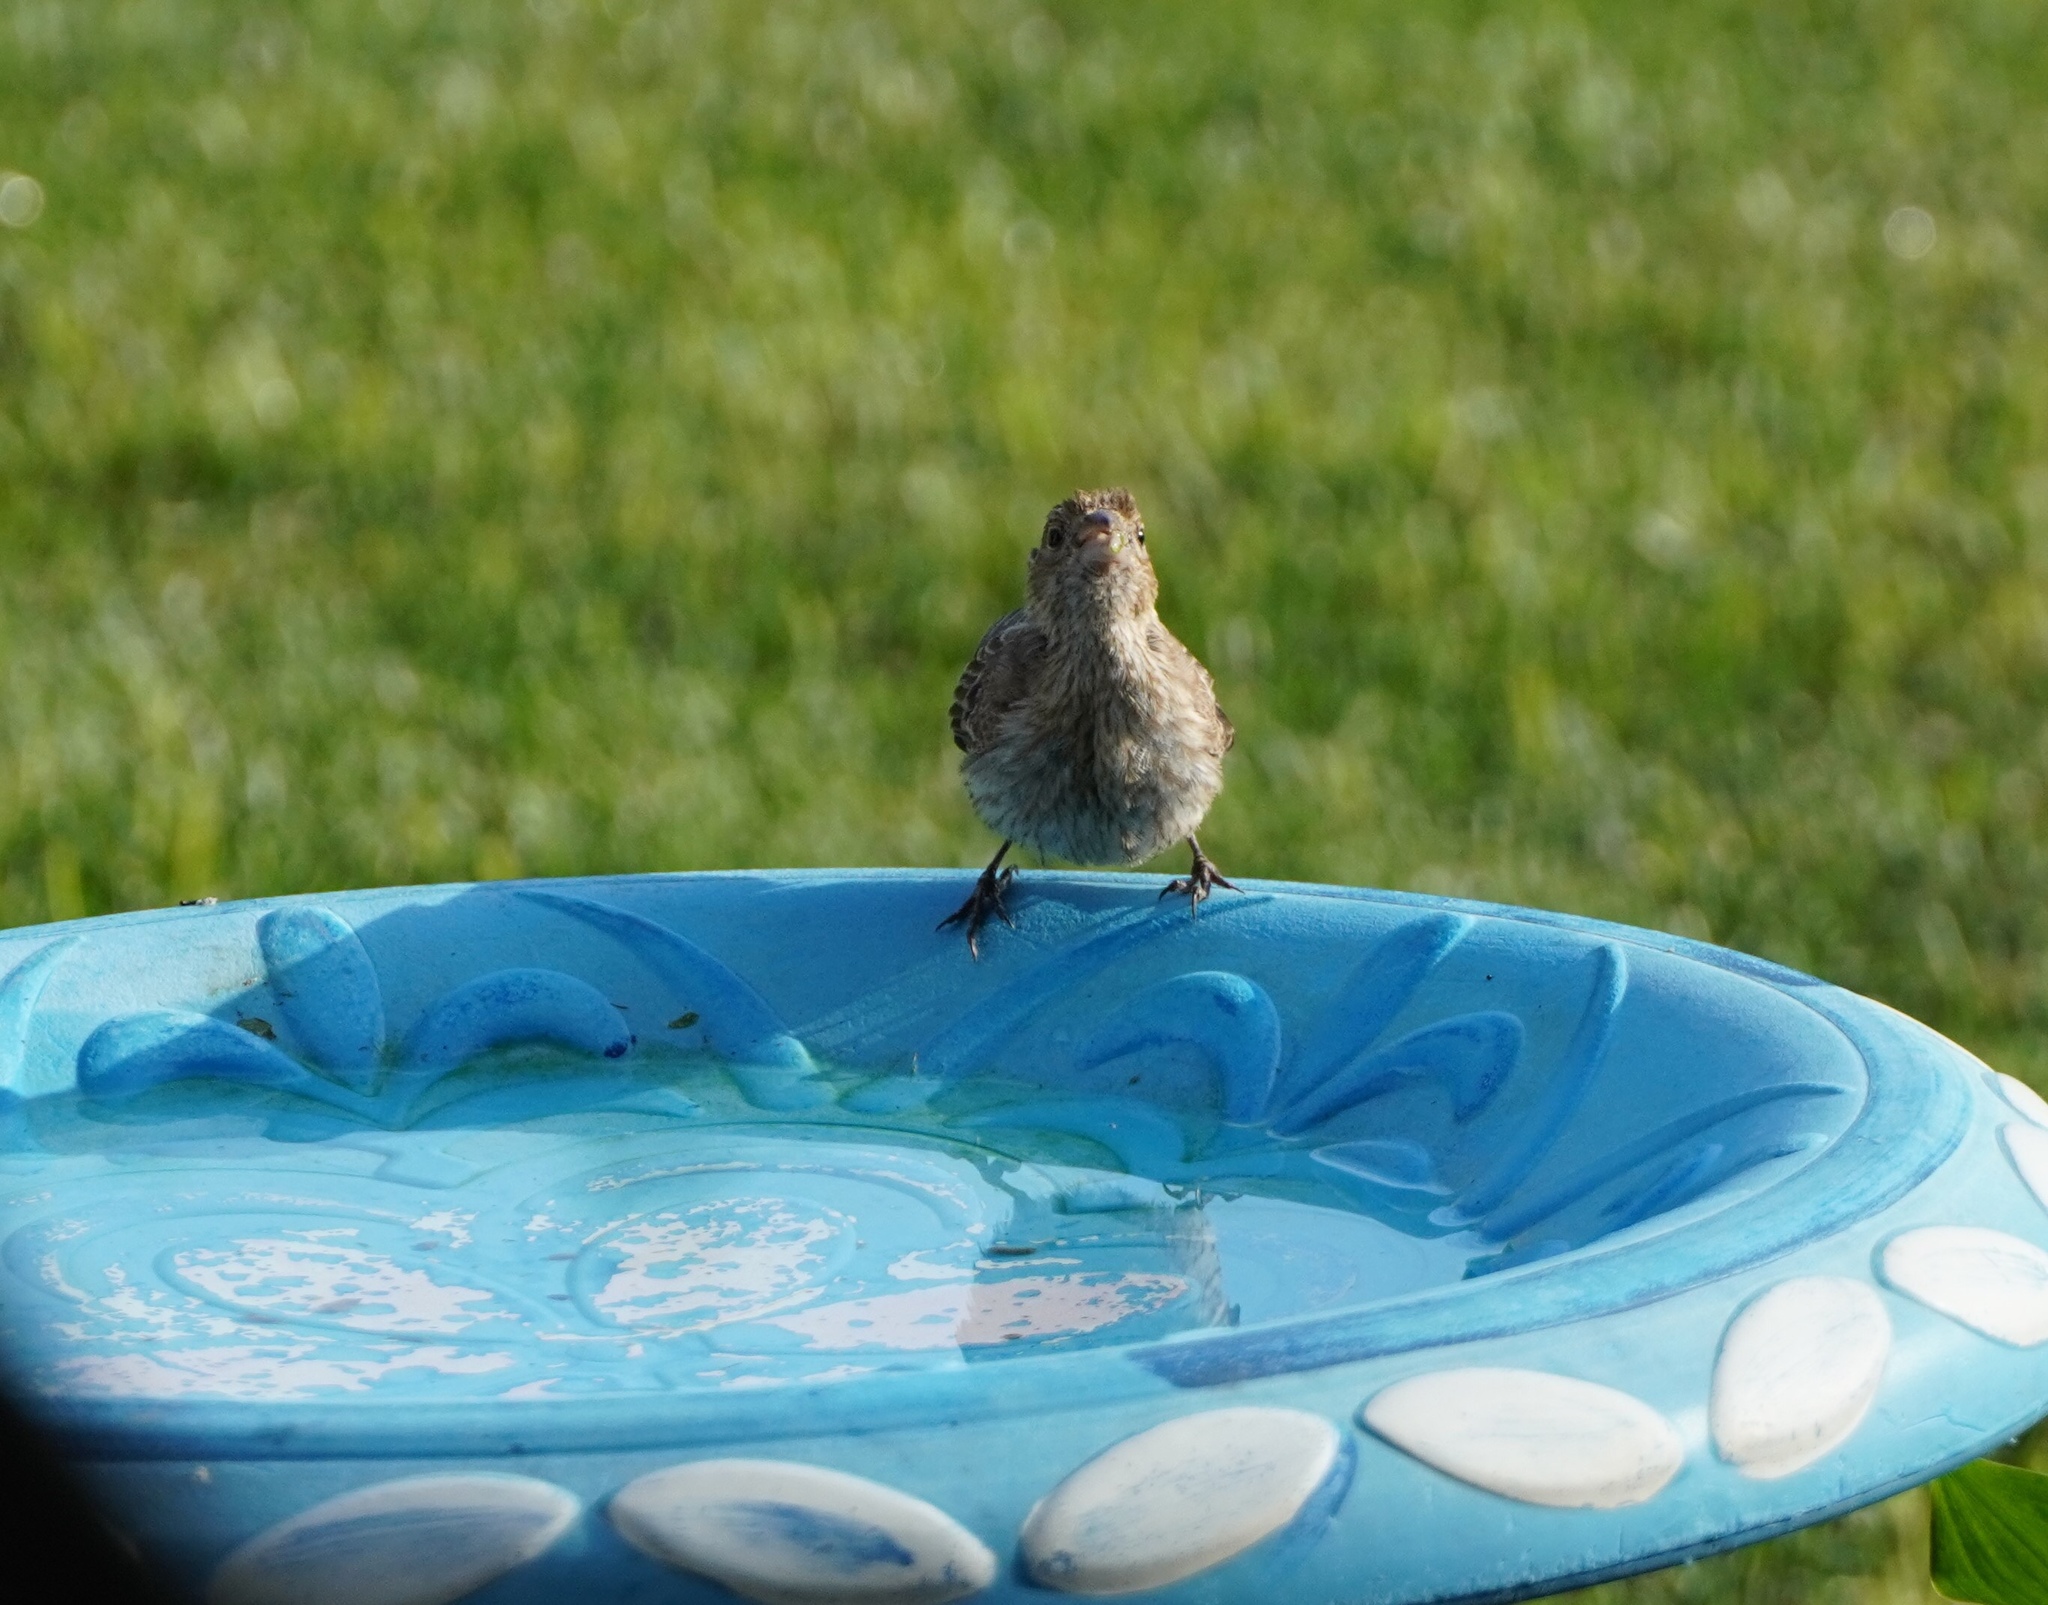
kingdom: Animalia
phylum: Chordata
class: Aves
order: Passeriformes
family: Fringillidae
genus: Haemorhous
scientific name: Haemorhous mexicanus
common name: House finch
